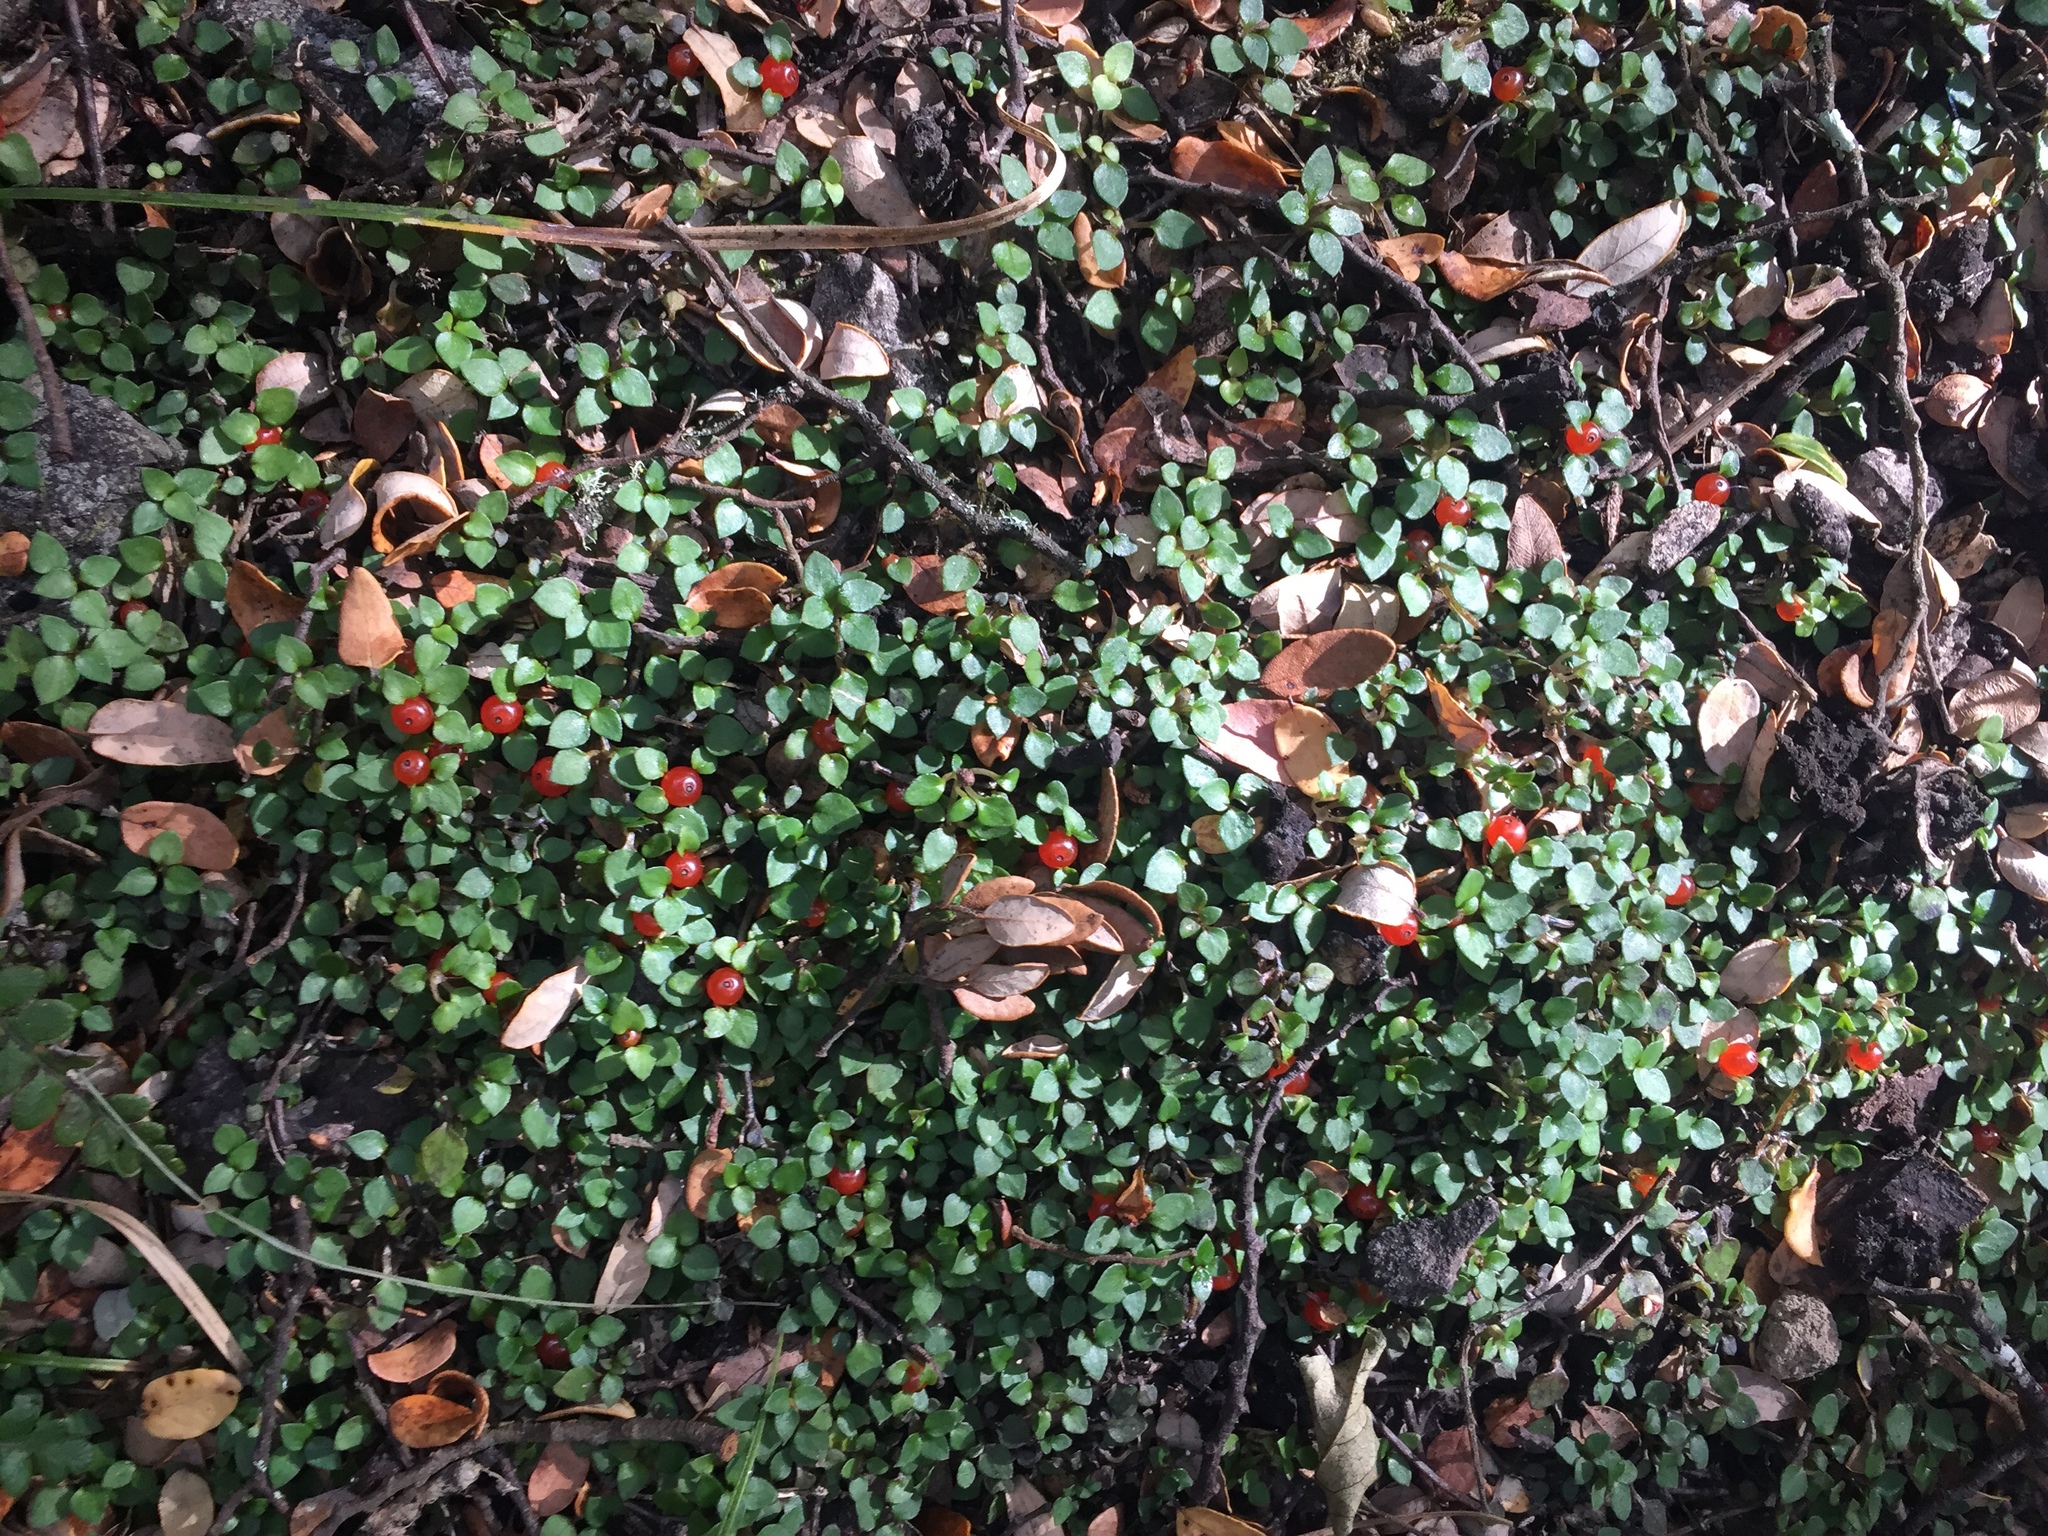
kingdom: Plantae
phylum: Tracheophyta
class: Magnoliopsida
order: Gentianales
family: Rubiaceae
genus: Nertera
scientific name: Nertera granadensis
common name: Beadplant
